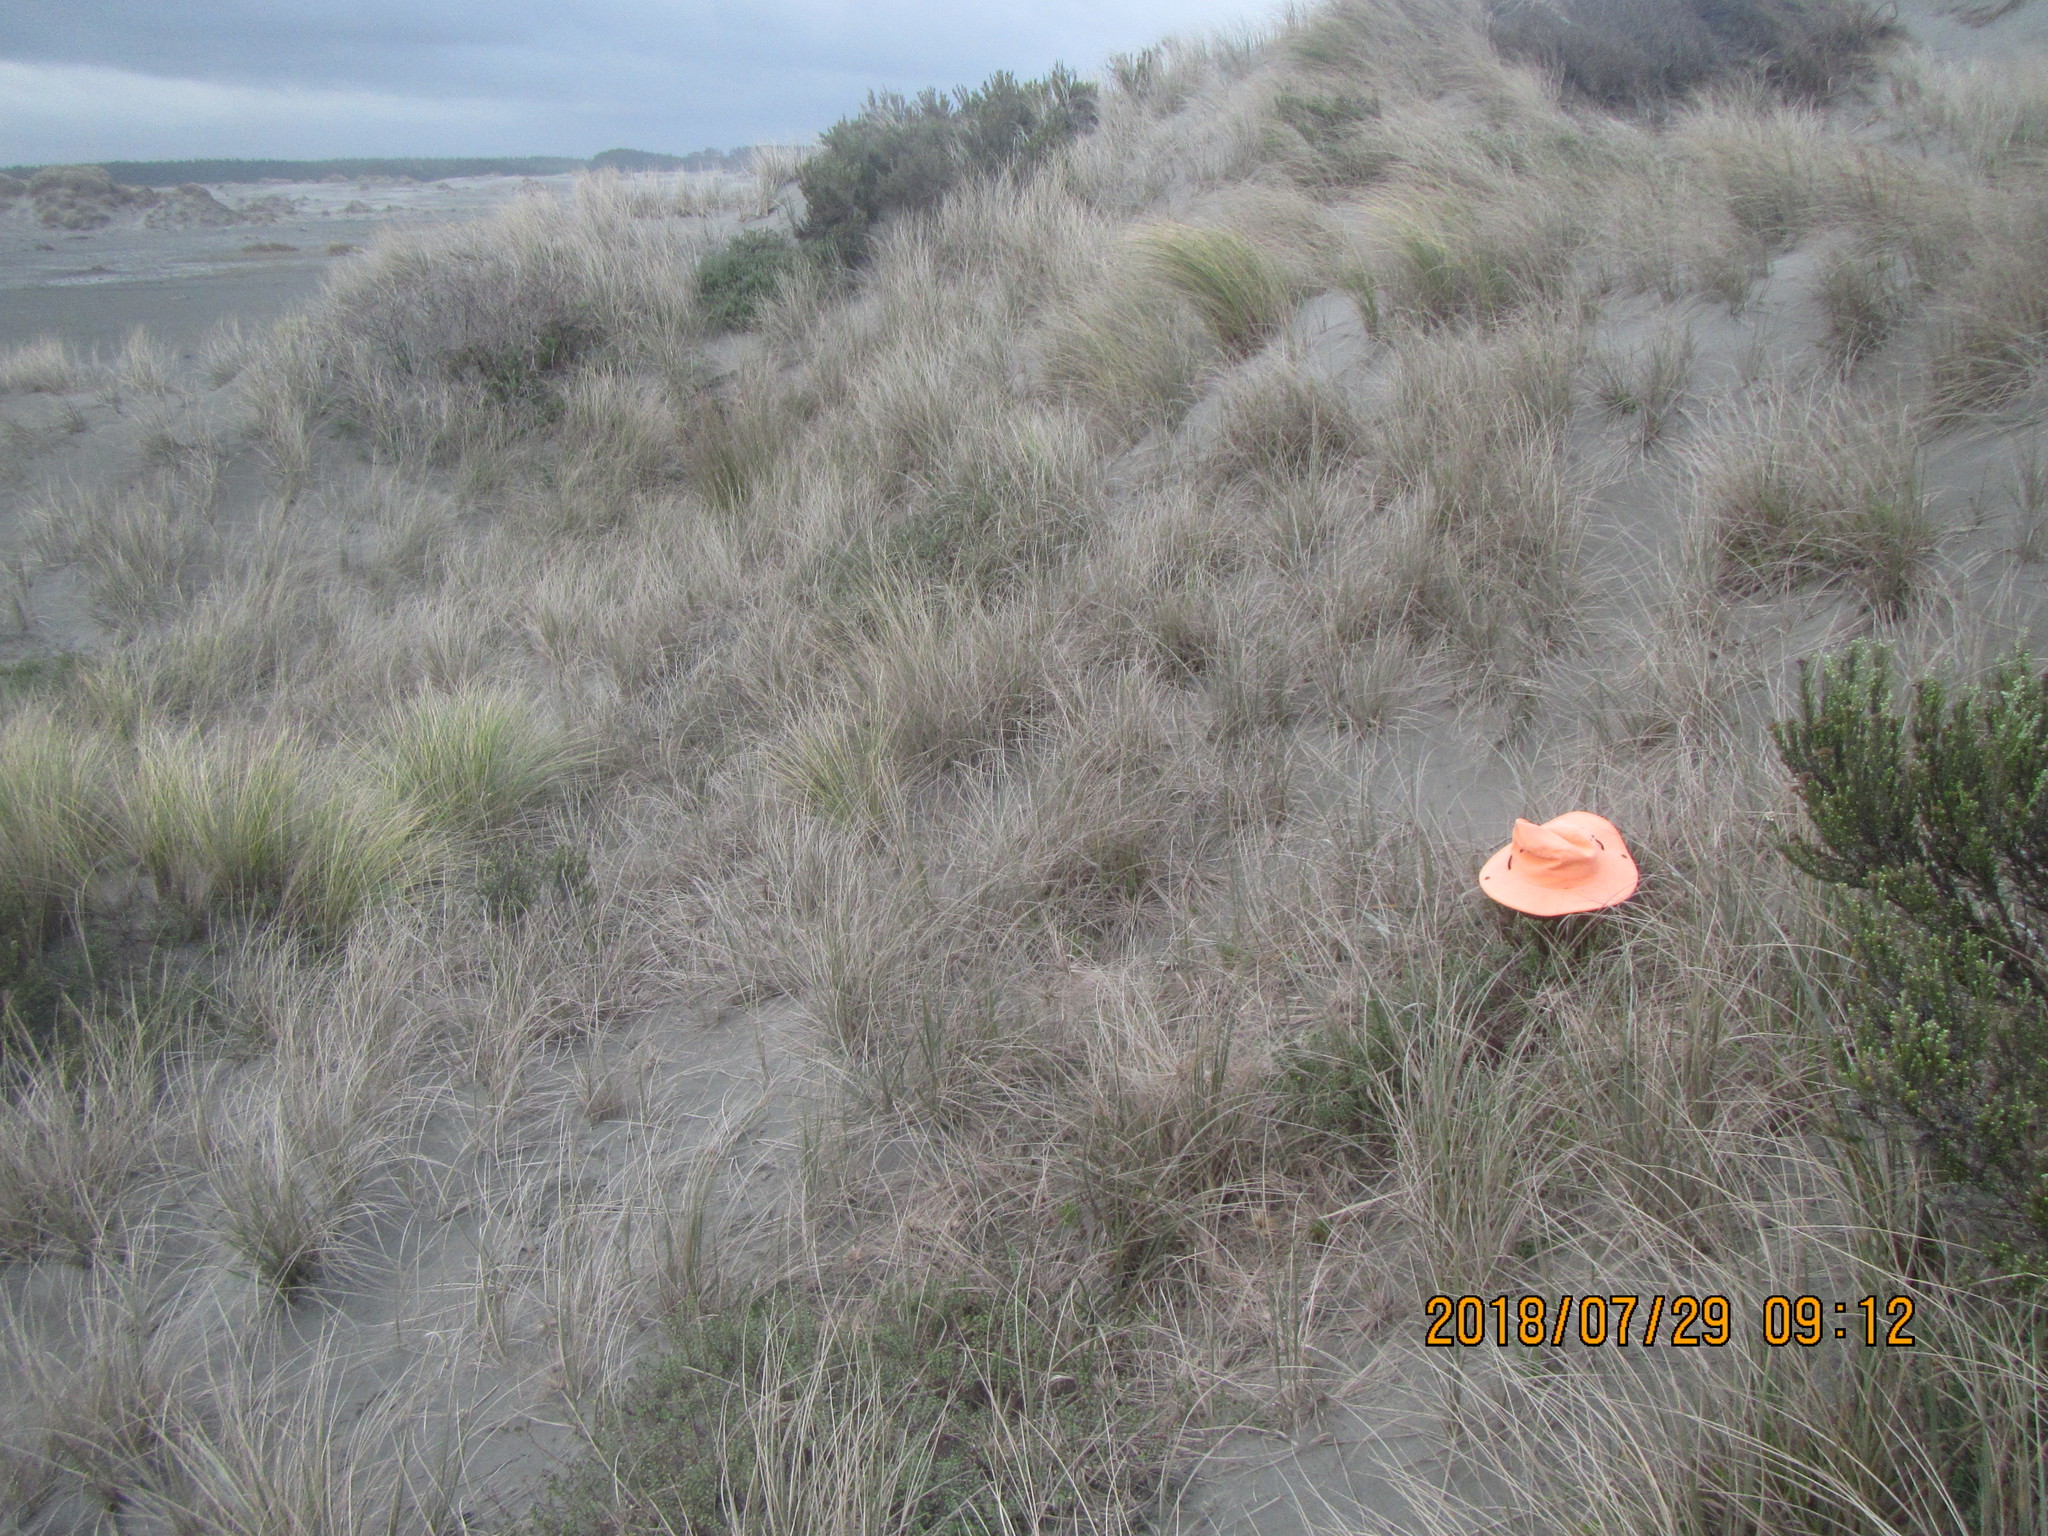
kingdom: Animalia
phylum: Arthropoda
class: Arachnida
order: Araneae
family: Theridiidae
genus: Latrodectus
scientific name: Latrodectus katipo
